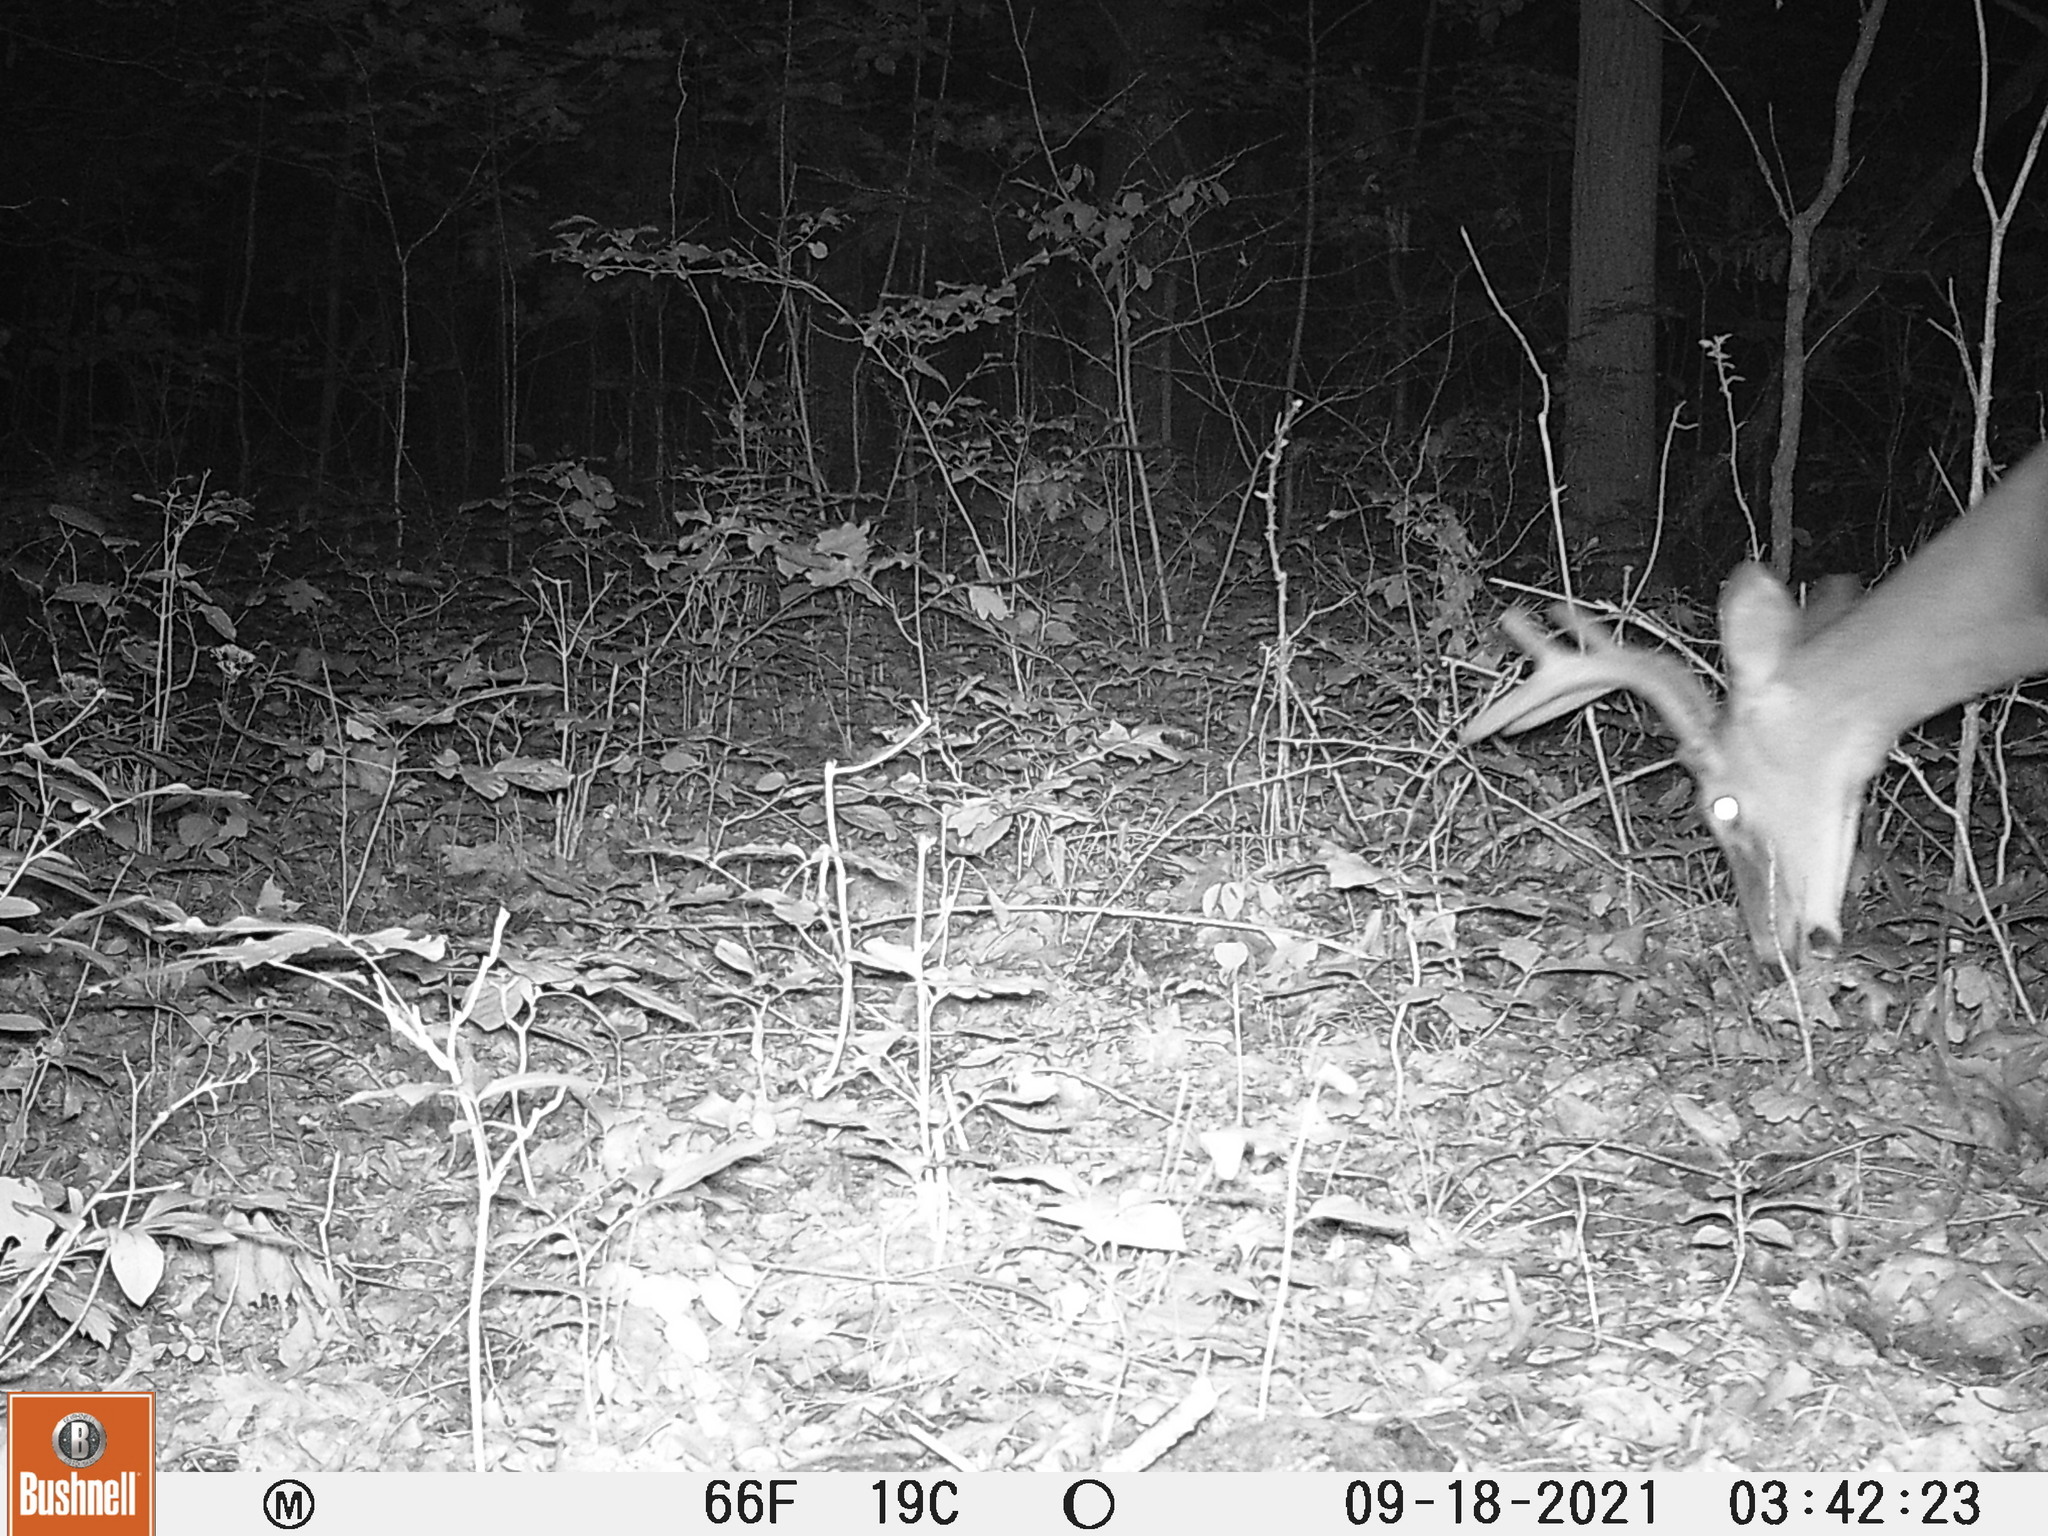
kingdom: Animalia
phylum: Chordata
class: Mammalia
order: Artiodactyla
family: Cervidae
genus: Odocoileus
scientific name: Odocoileus virginianus
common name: White-tailed deer
